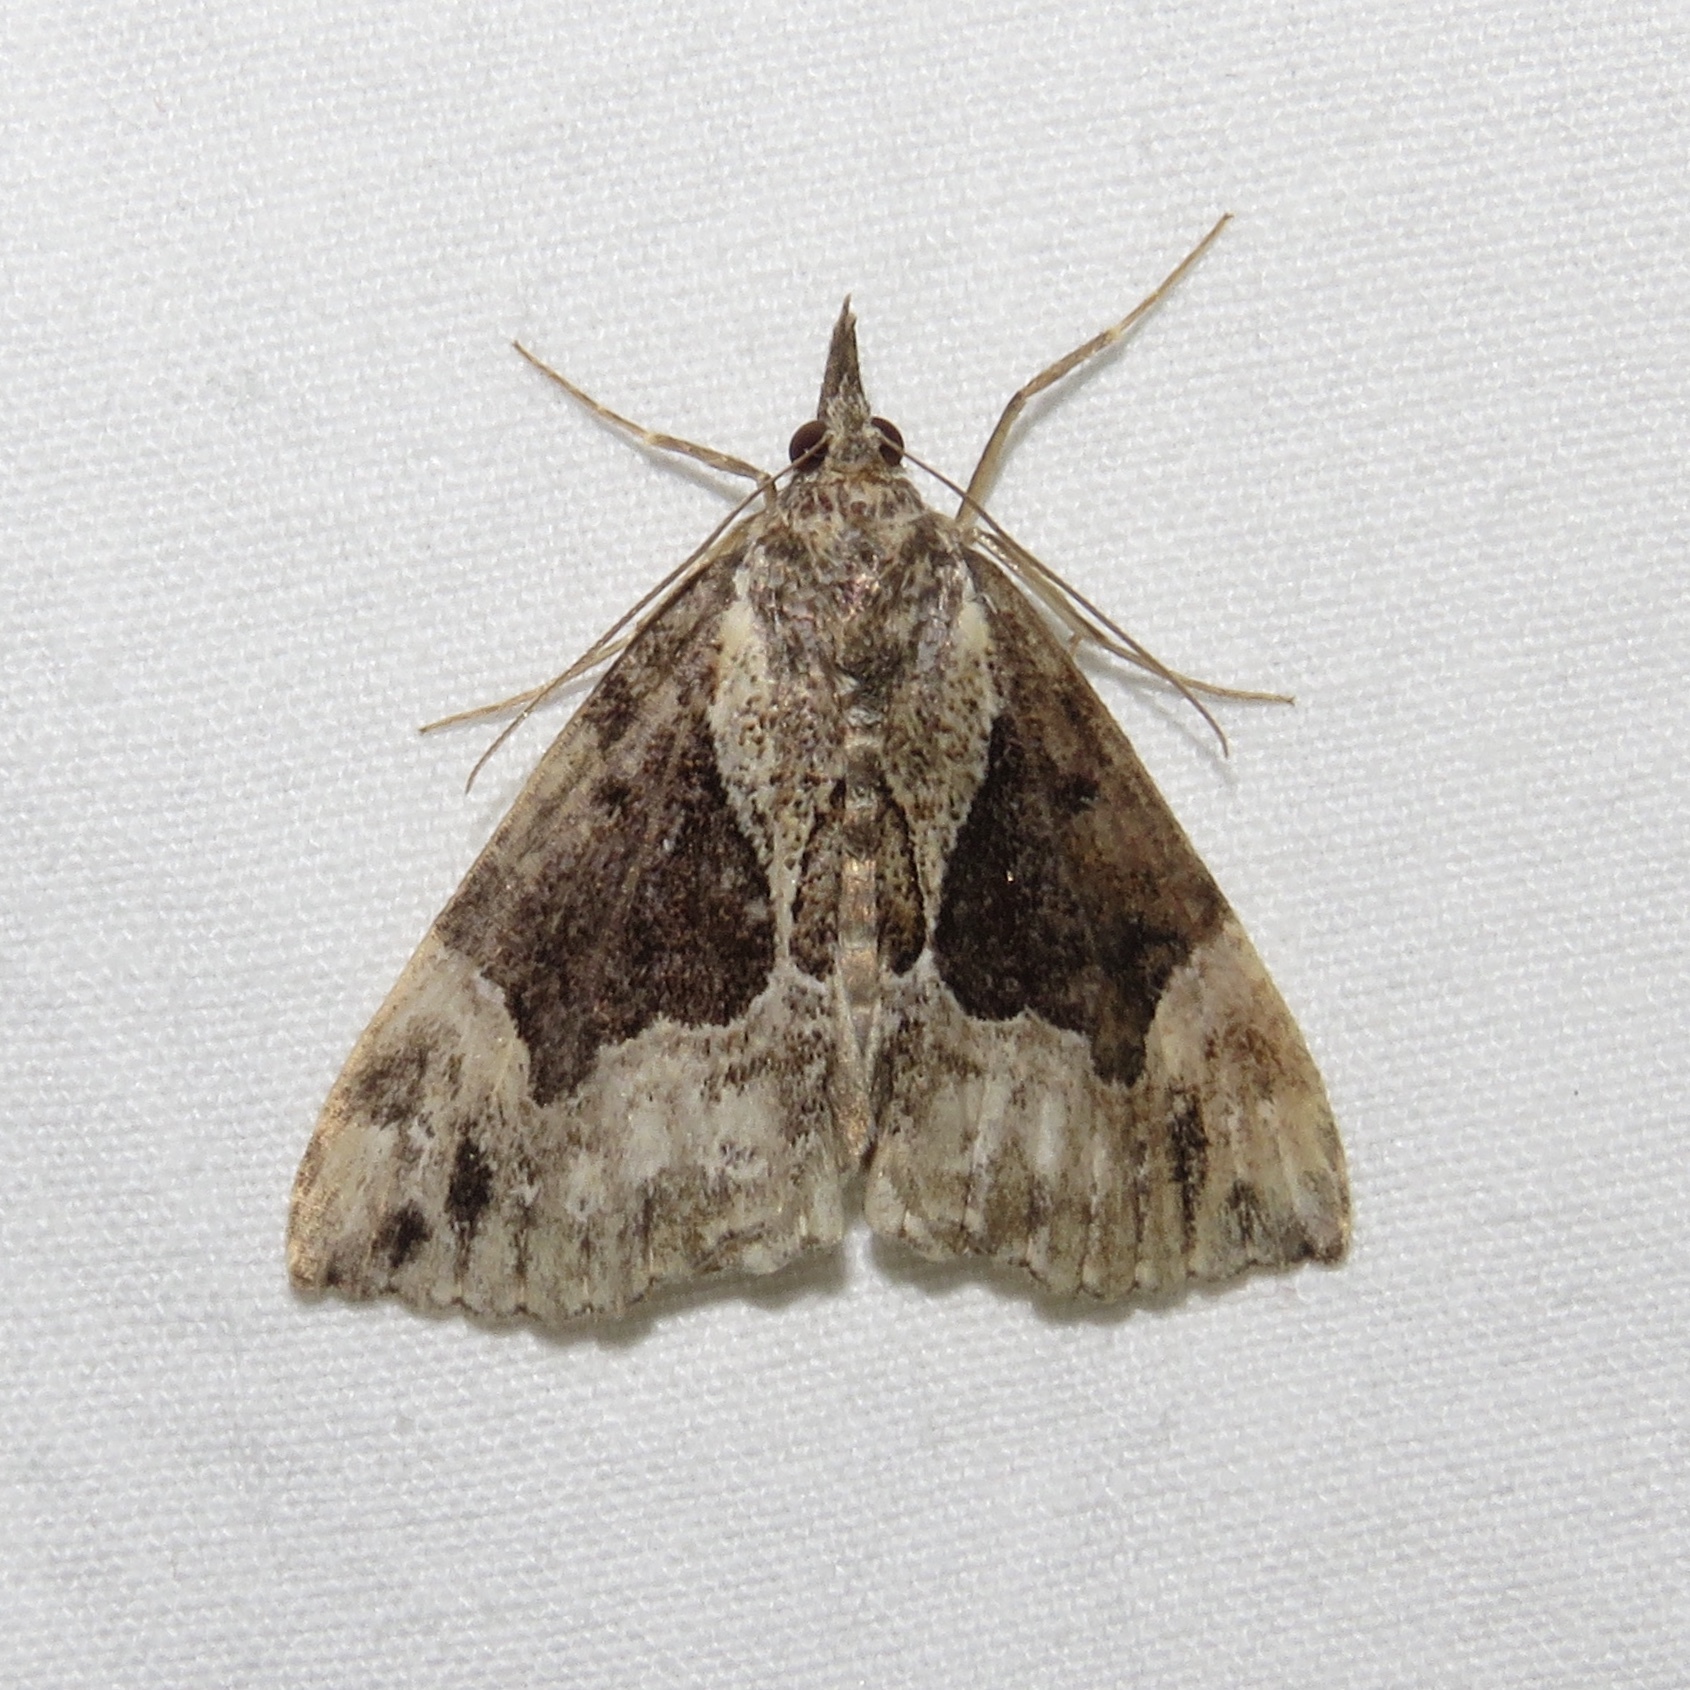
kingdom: Animalia
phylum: Arthropoda
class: Insecta
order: Lepidoptera
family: Erebidae
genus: Hypena
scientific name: Hypena palparia
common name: Mottled bomolocha moth
